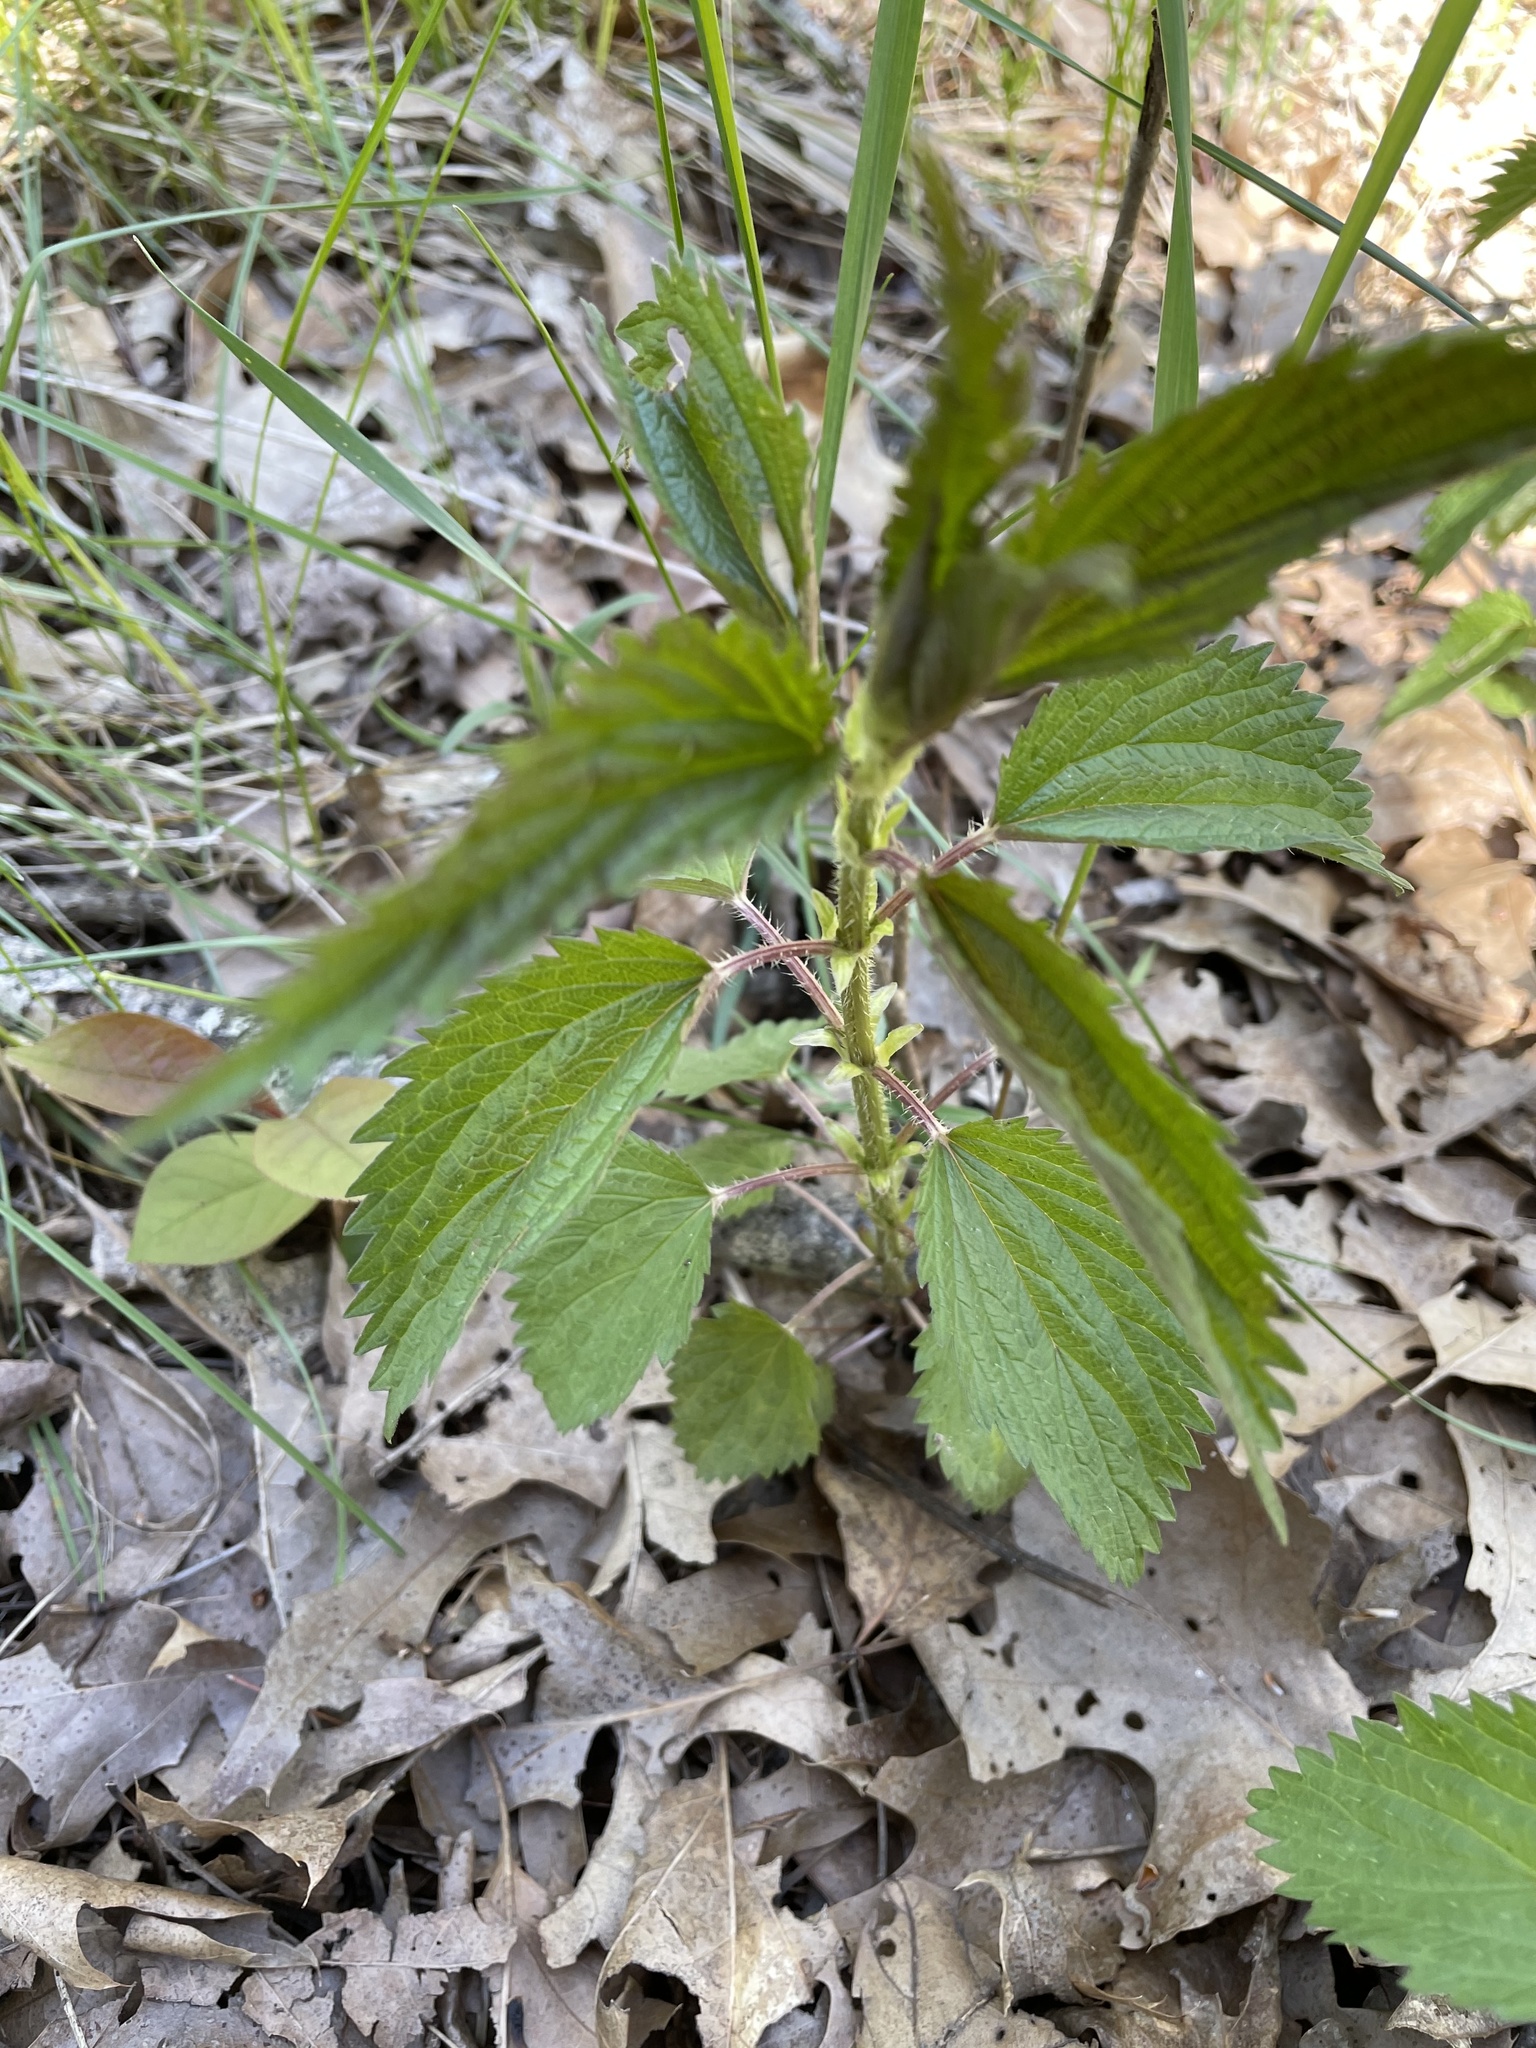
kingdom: Plantae
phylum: Tracheophyta
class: Magnoliopsida
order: Rosales
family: Urticaceae
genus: Urtica
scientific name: Urtica dioica
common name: Common nettle
